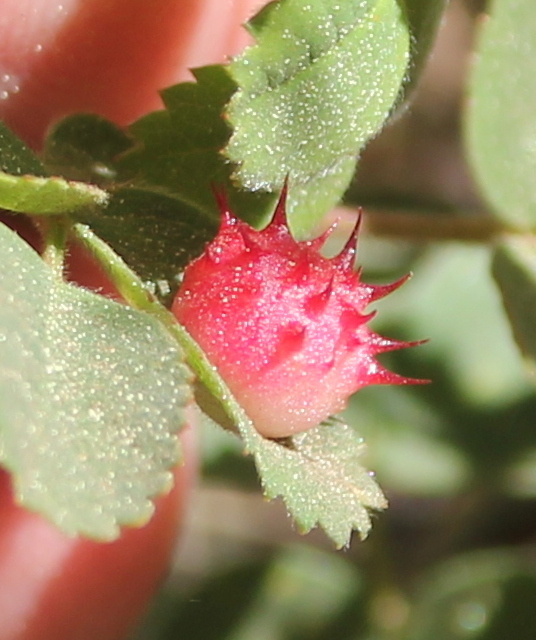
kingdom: Animalia
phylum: Arthropoda
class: Insecta
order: Hymenoptera
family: Cynipidae
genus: Diplolepis
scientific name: Diplolepis polita
